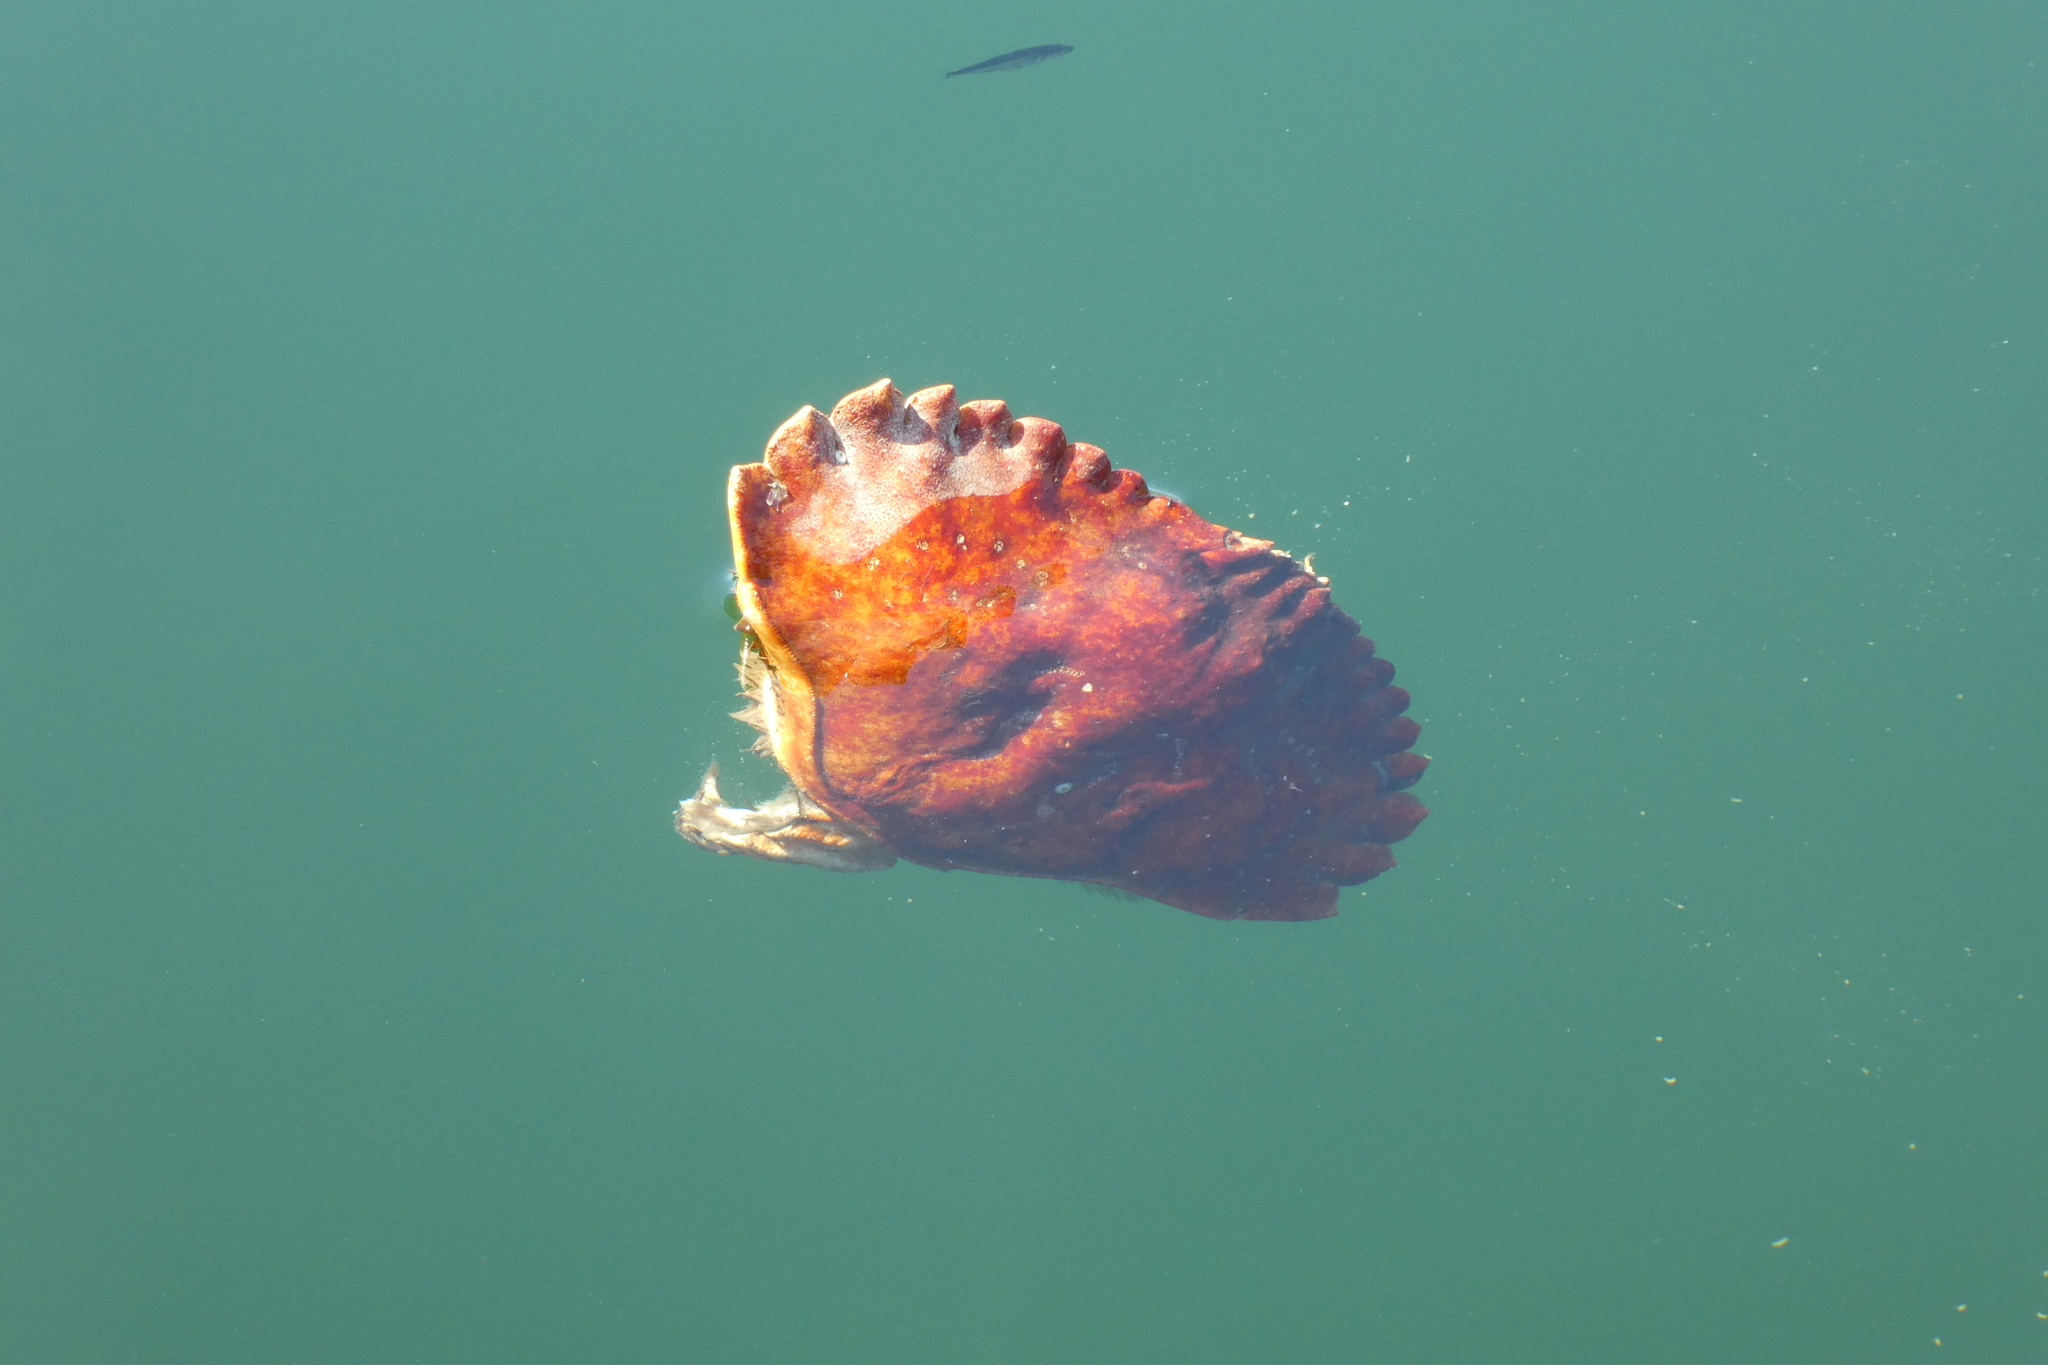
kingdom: Animalia
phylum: Arthropoda
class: Malacostraca
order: Decapoda
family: Cancridae
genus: Cancer
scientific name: Cancer productus
